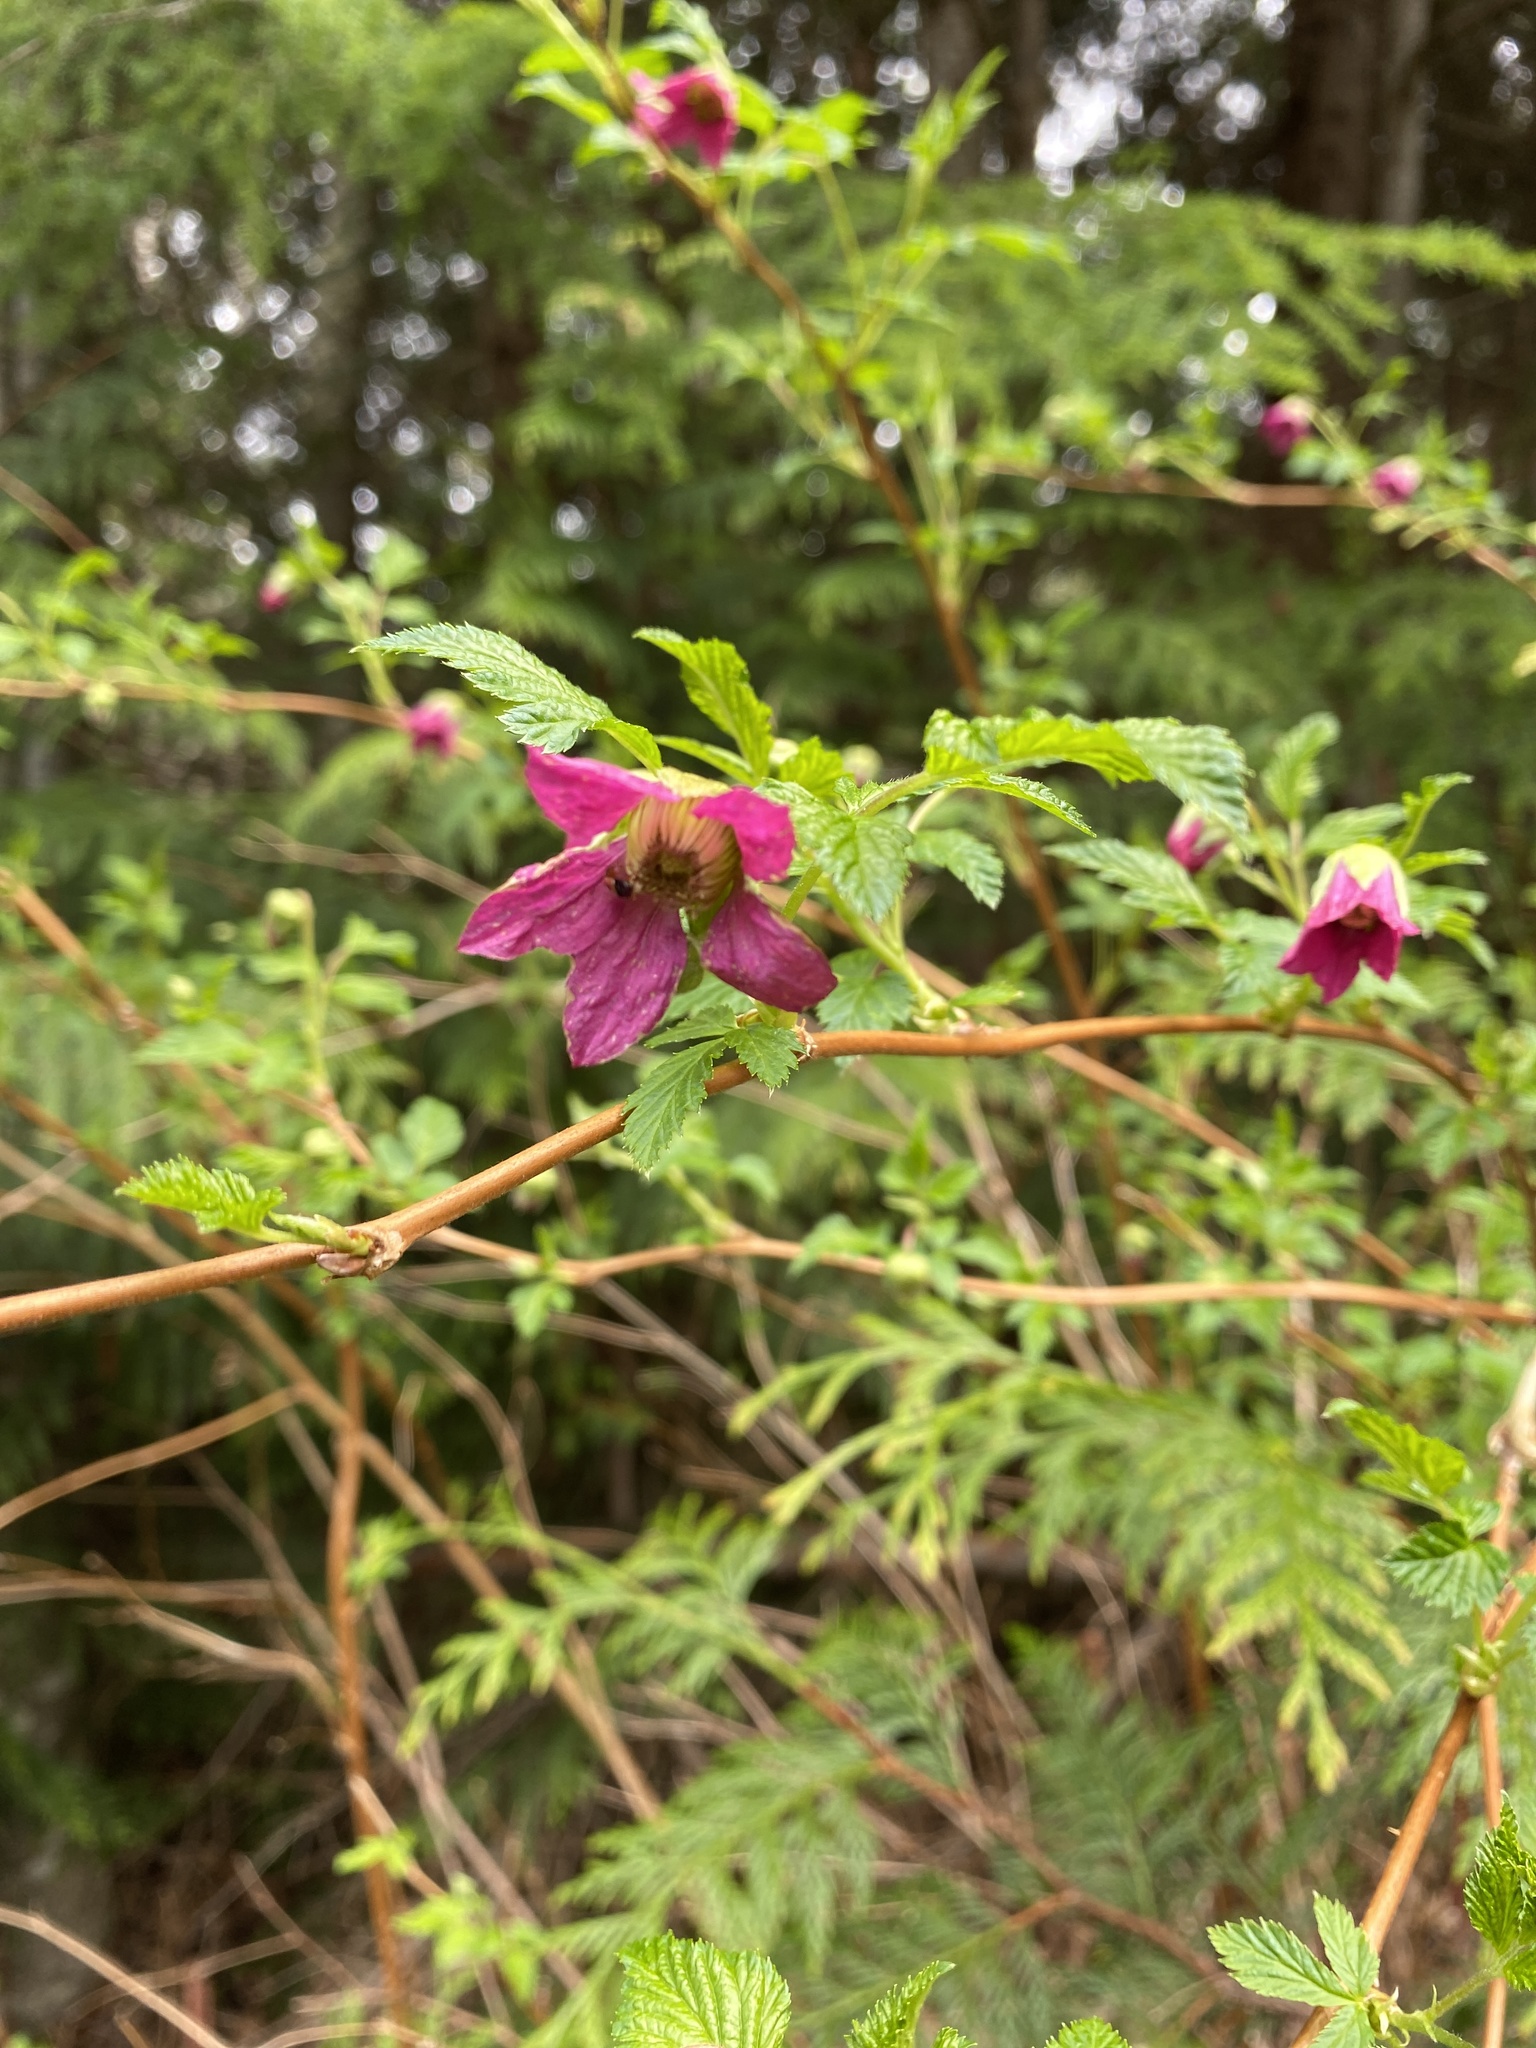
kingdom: Plantae
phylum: Tracheophyta
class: Magnoliopsida
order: Rosales
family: Rosaceae
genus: Rubus
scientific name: Rubus spectabilis
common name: Salmonberry
